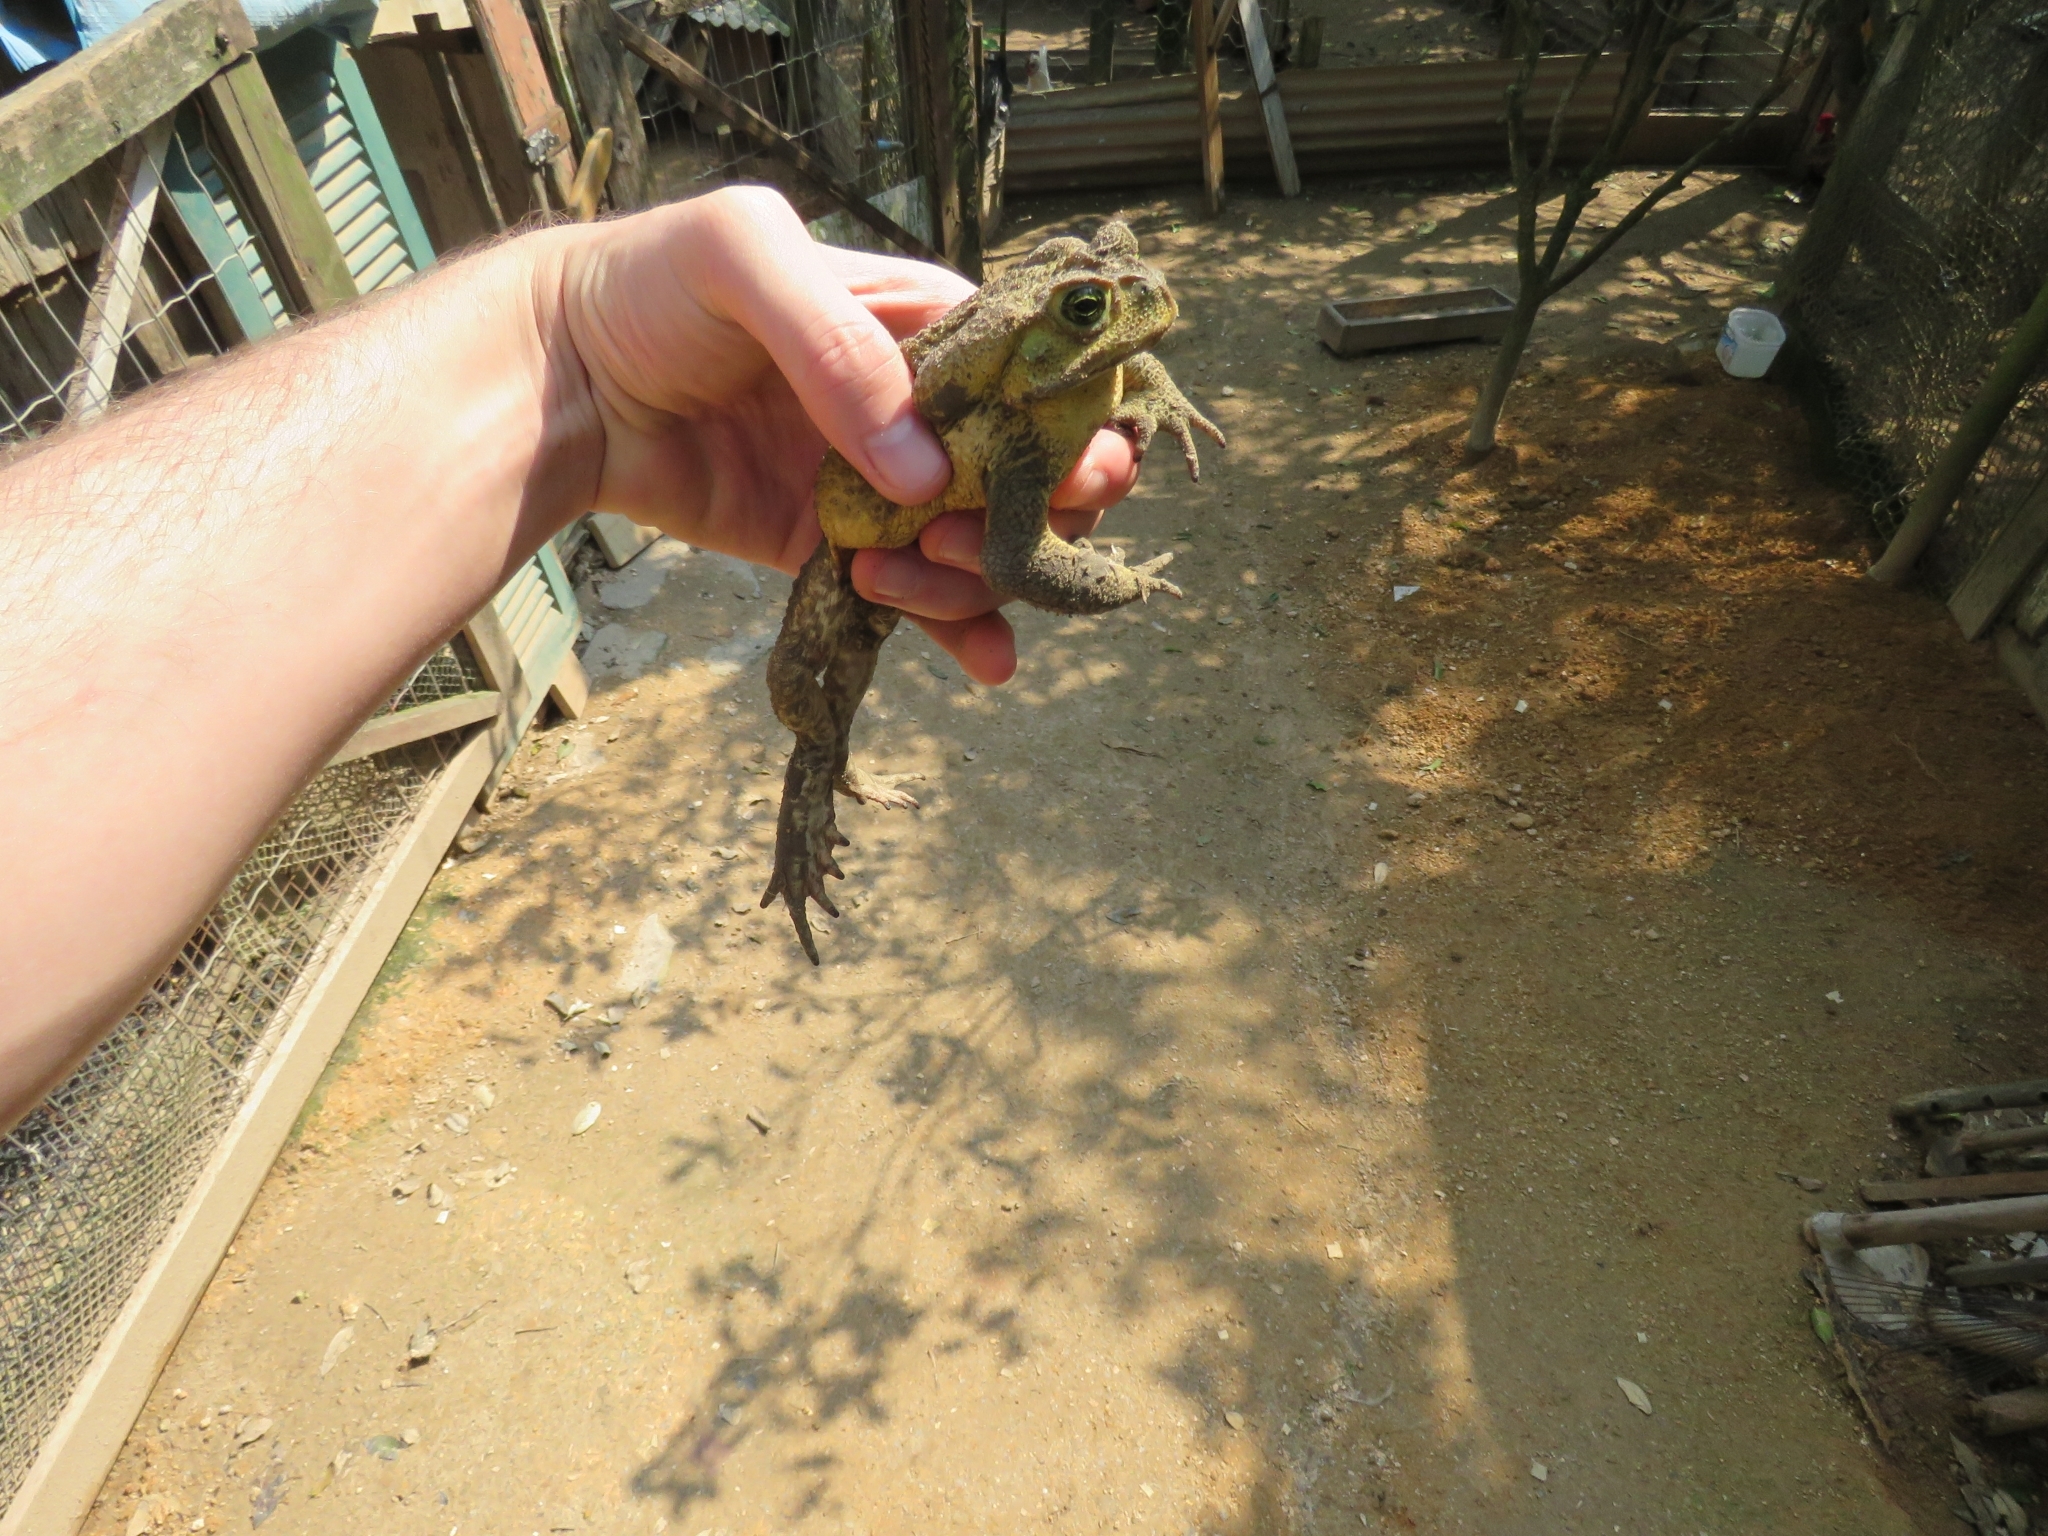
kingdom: Animalia
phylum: Chordata
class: Amphibia
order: Anura
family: Bufonidae
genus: Rhinella
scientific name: Rhinella icterica
